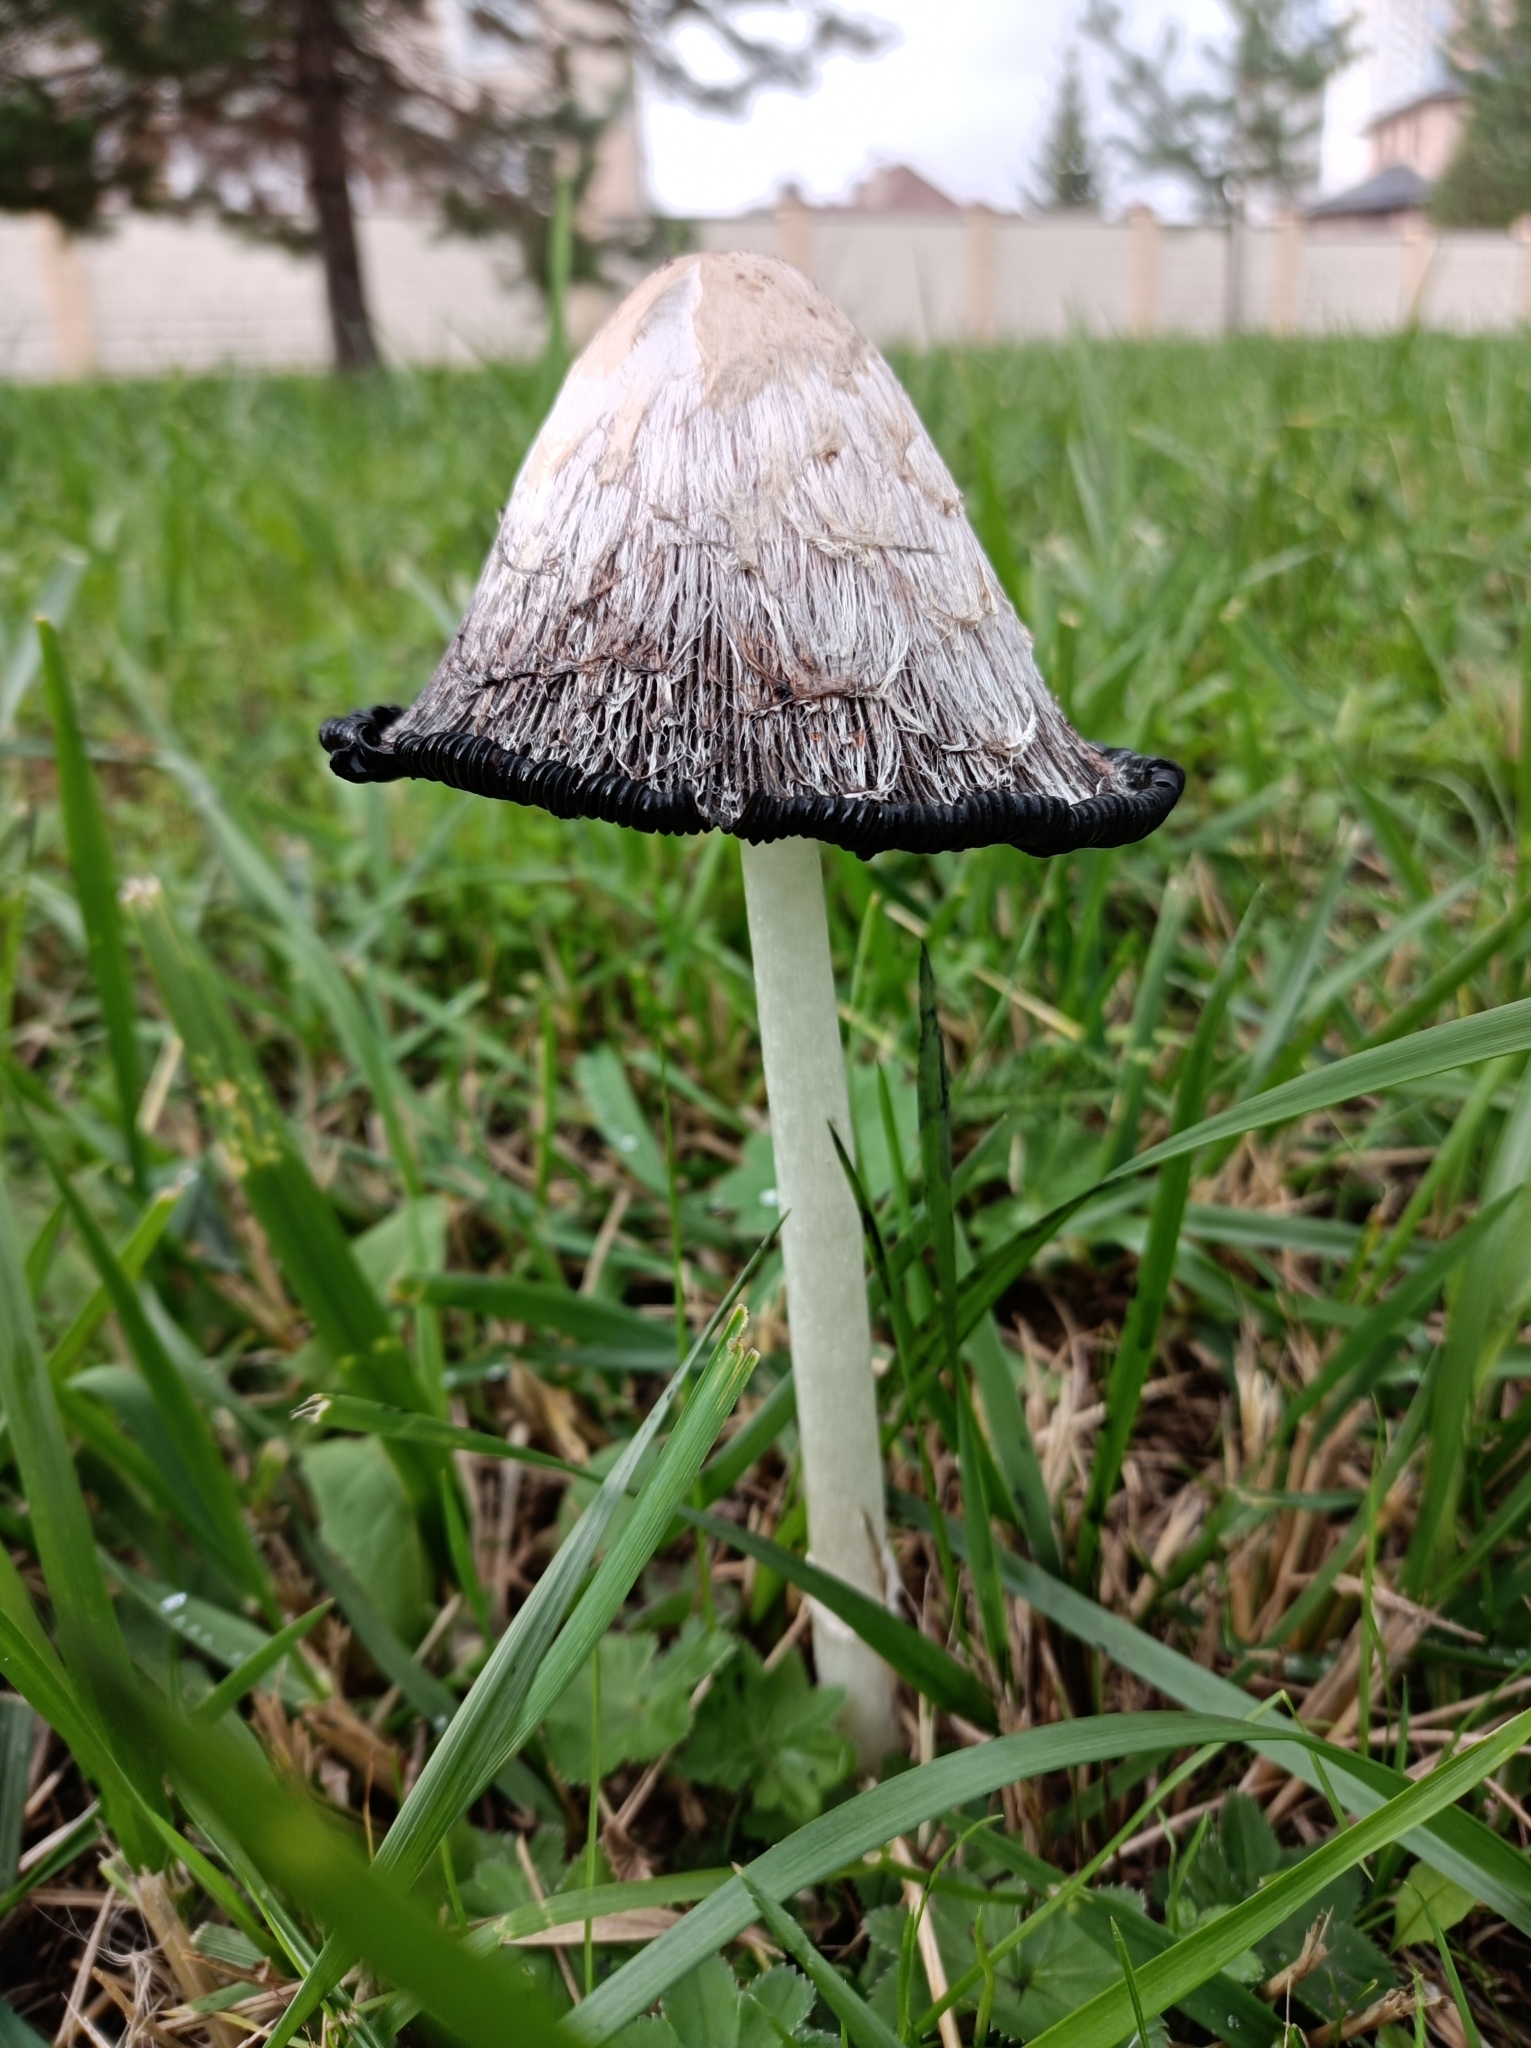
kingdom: Fungi
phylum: Basidiomycota
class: Agaricomycetes
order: Agaricales
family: Agaricaceae
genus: Coprinus
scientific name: Coprinus comatus
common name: Lawyer's wig
